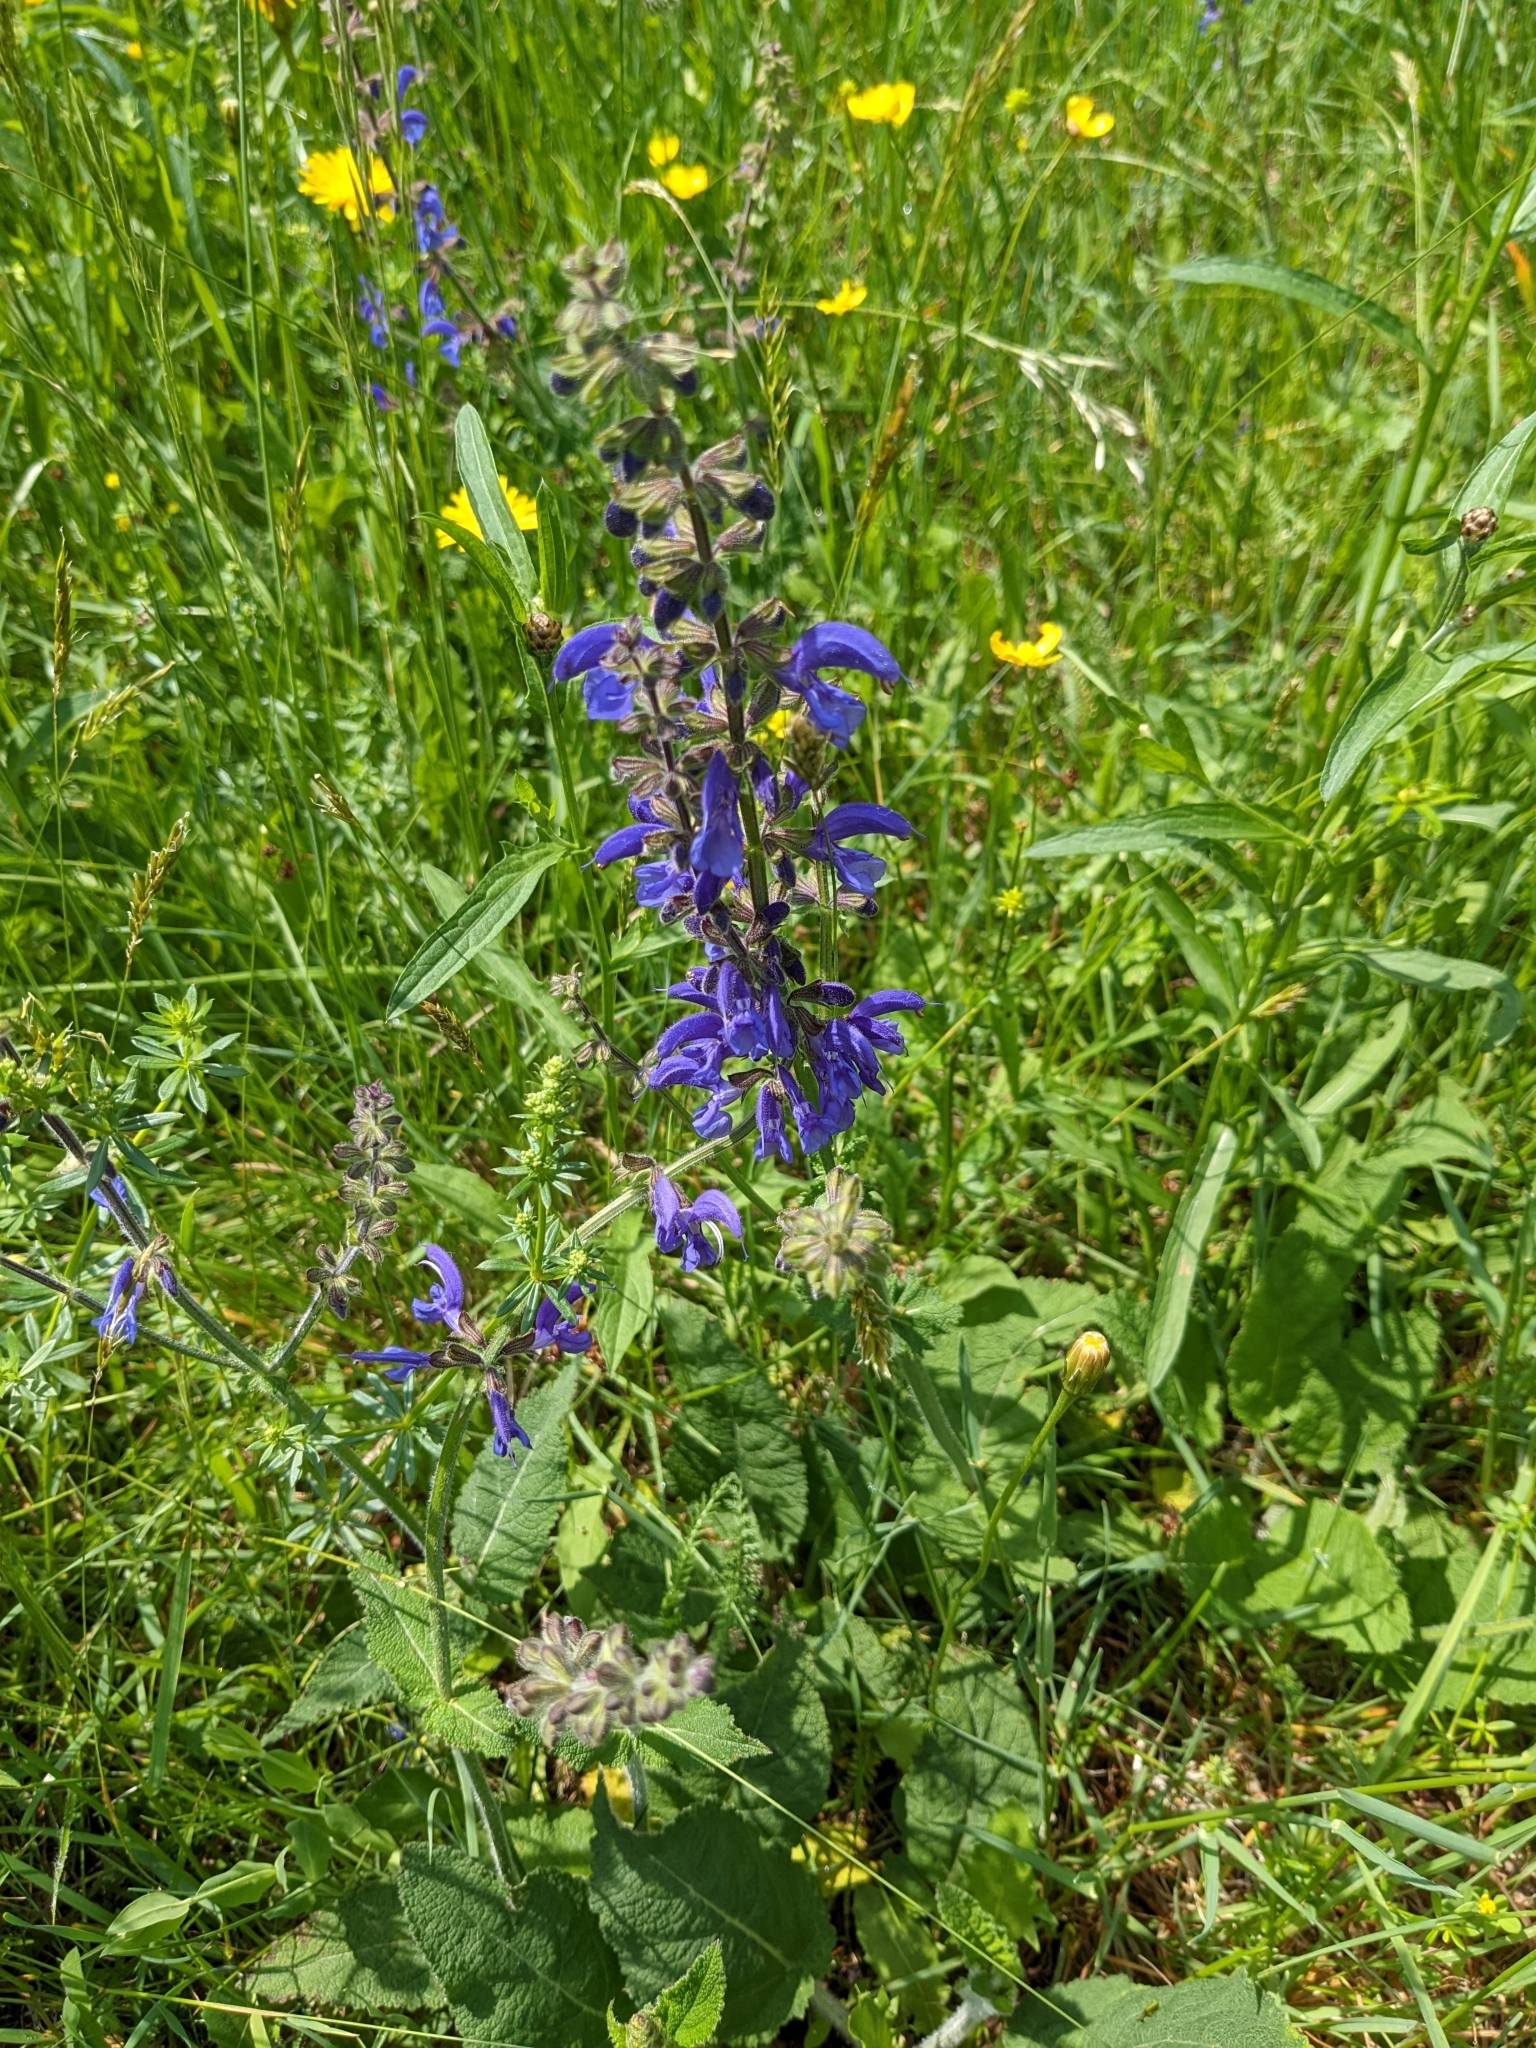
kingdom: Plantae
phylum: Tracheophyta
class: Magnoliopsida
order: Lamiales
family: Lamiaceae
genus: Salvia
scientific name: Salvia pratensis
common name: Meadow sage
